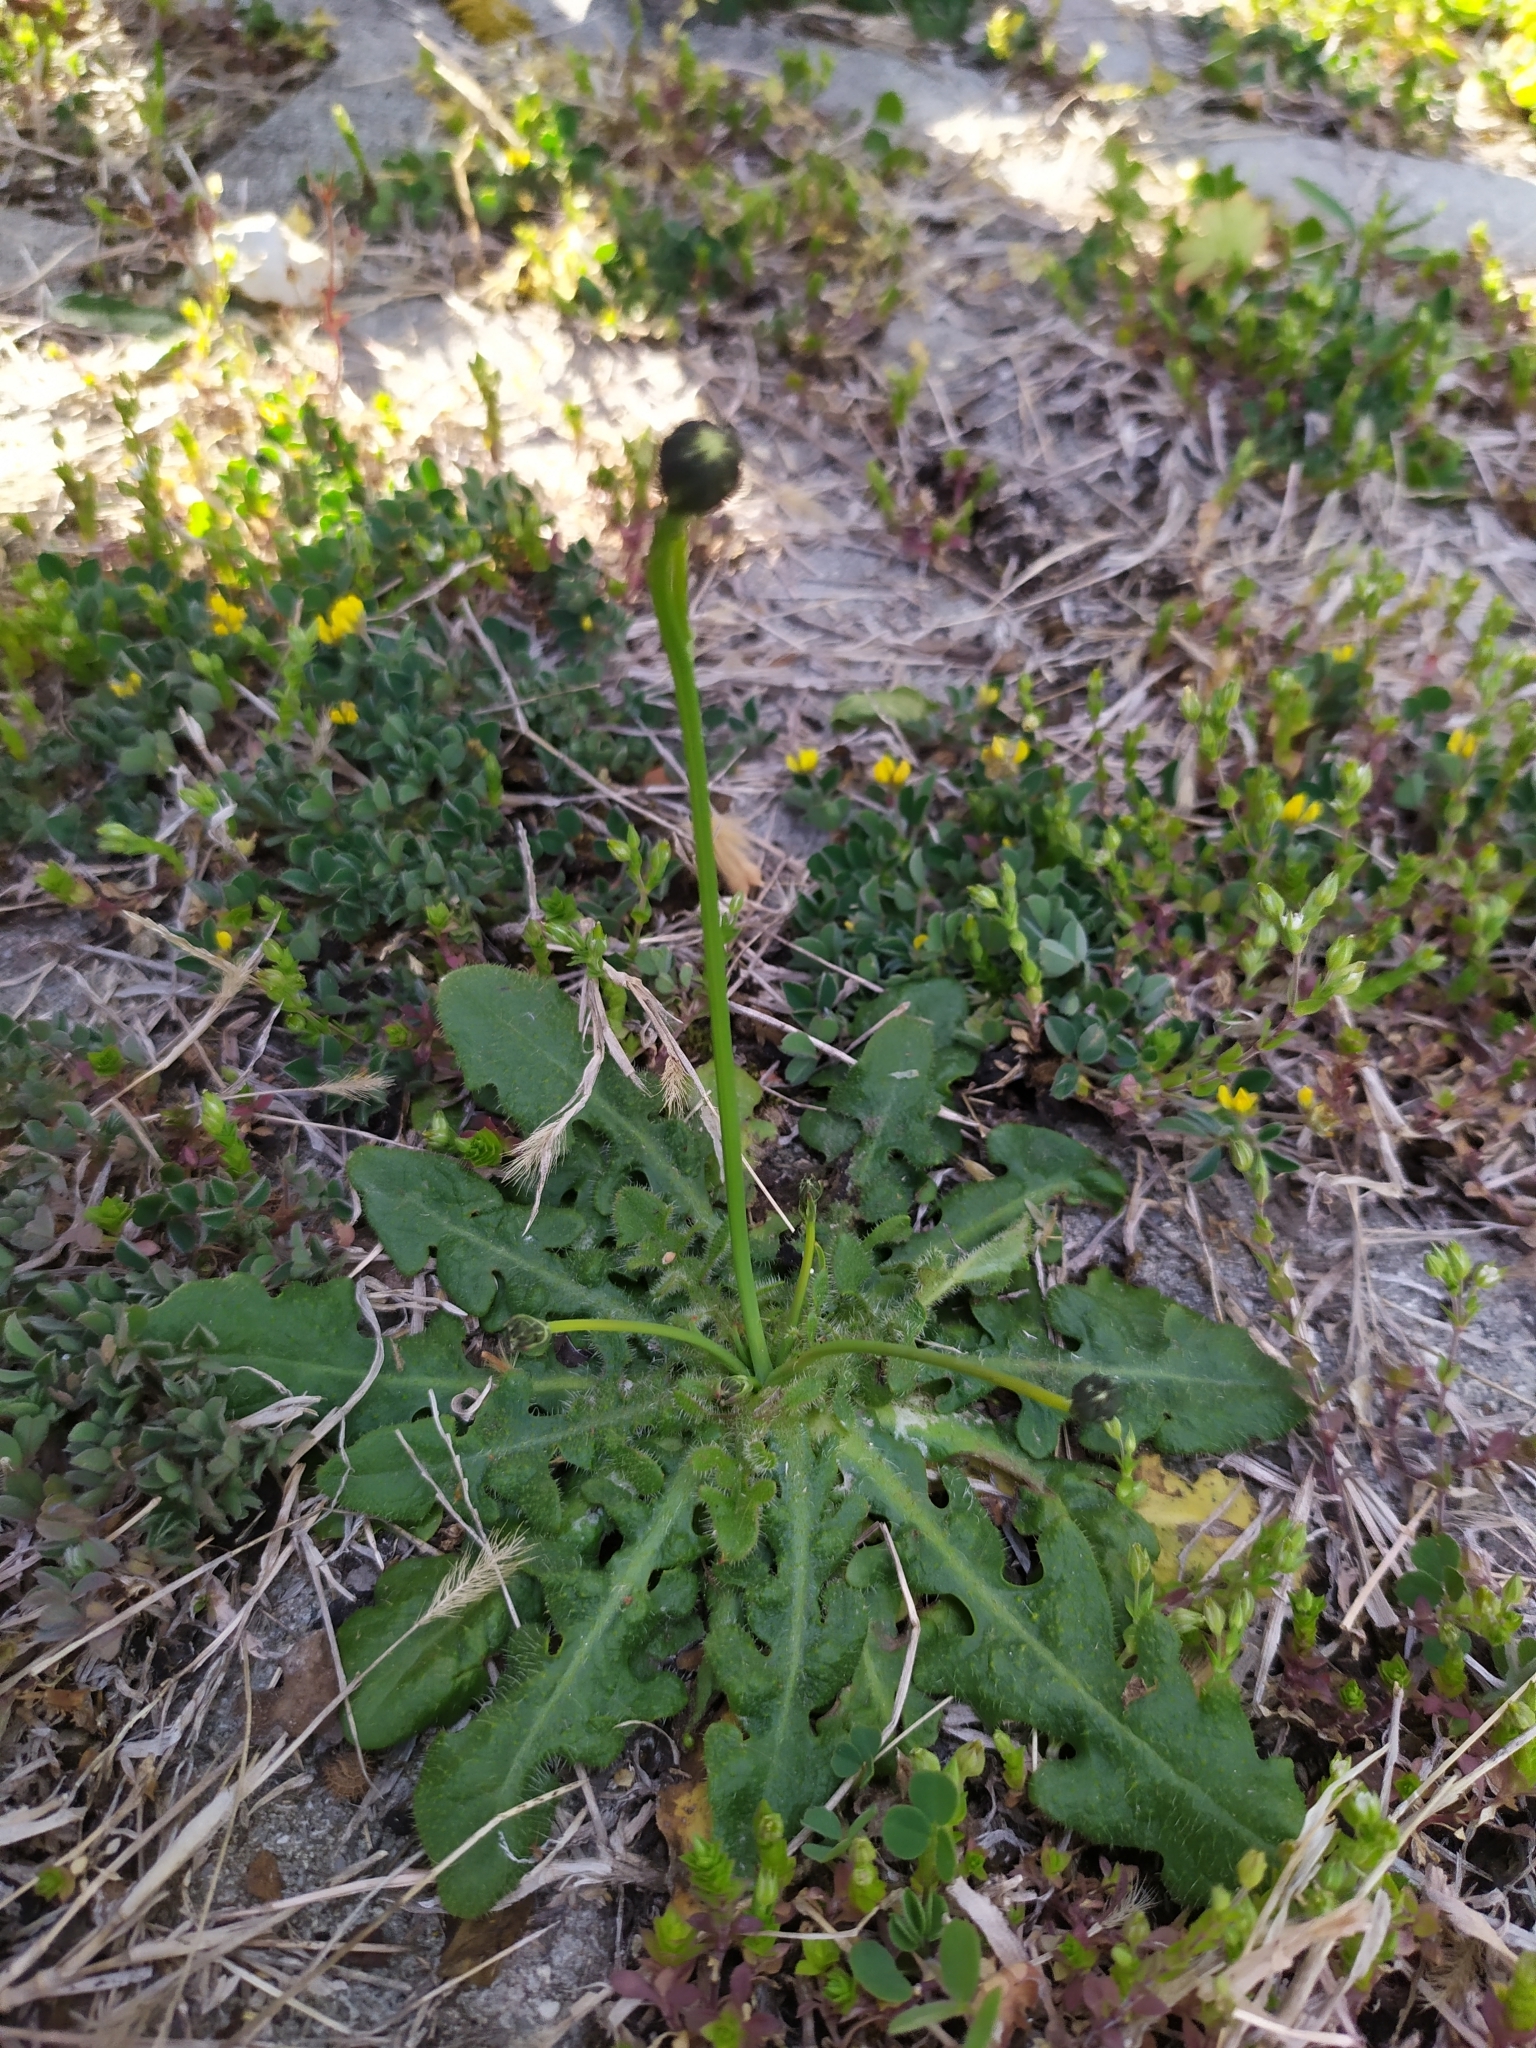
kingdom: Plantae
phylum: Tracheophyta
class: Magnoliopsida
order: Asterales
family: Asteraceae
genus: Hypochaeris
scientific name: Hypochaeris radicata
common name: Flatweed
